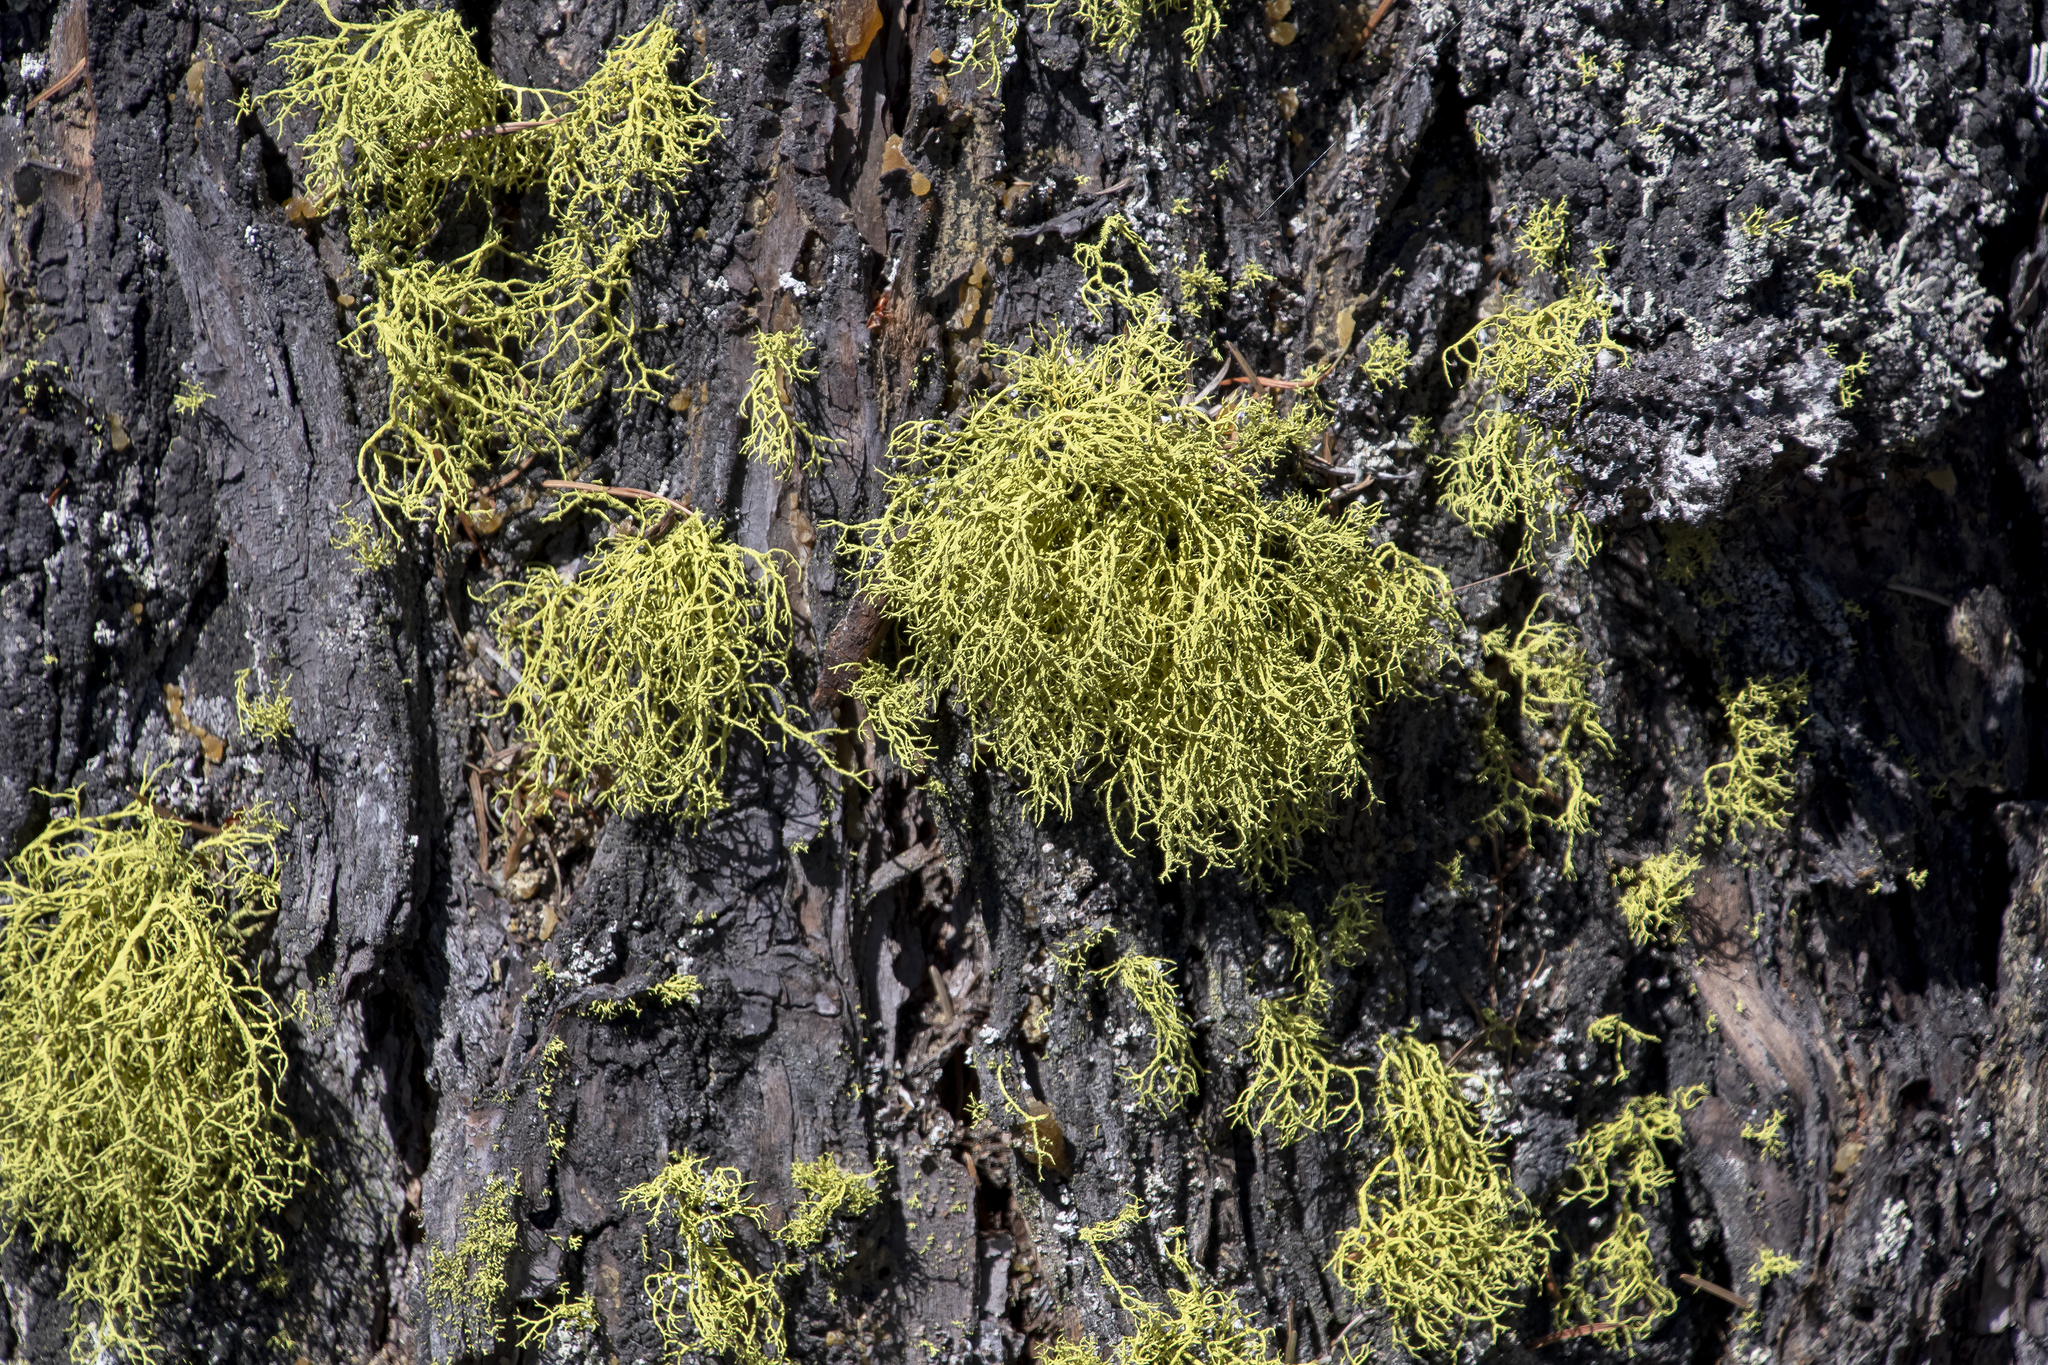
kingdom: Fungi
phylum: Ascomycota
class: Lecanoromycetes
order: Lecanorales
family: Parmeliaceae
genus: Letharia
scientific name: Letharia vulpina
